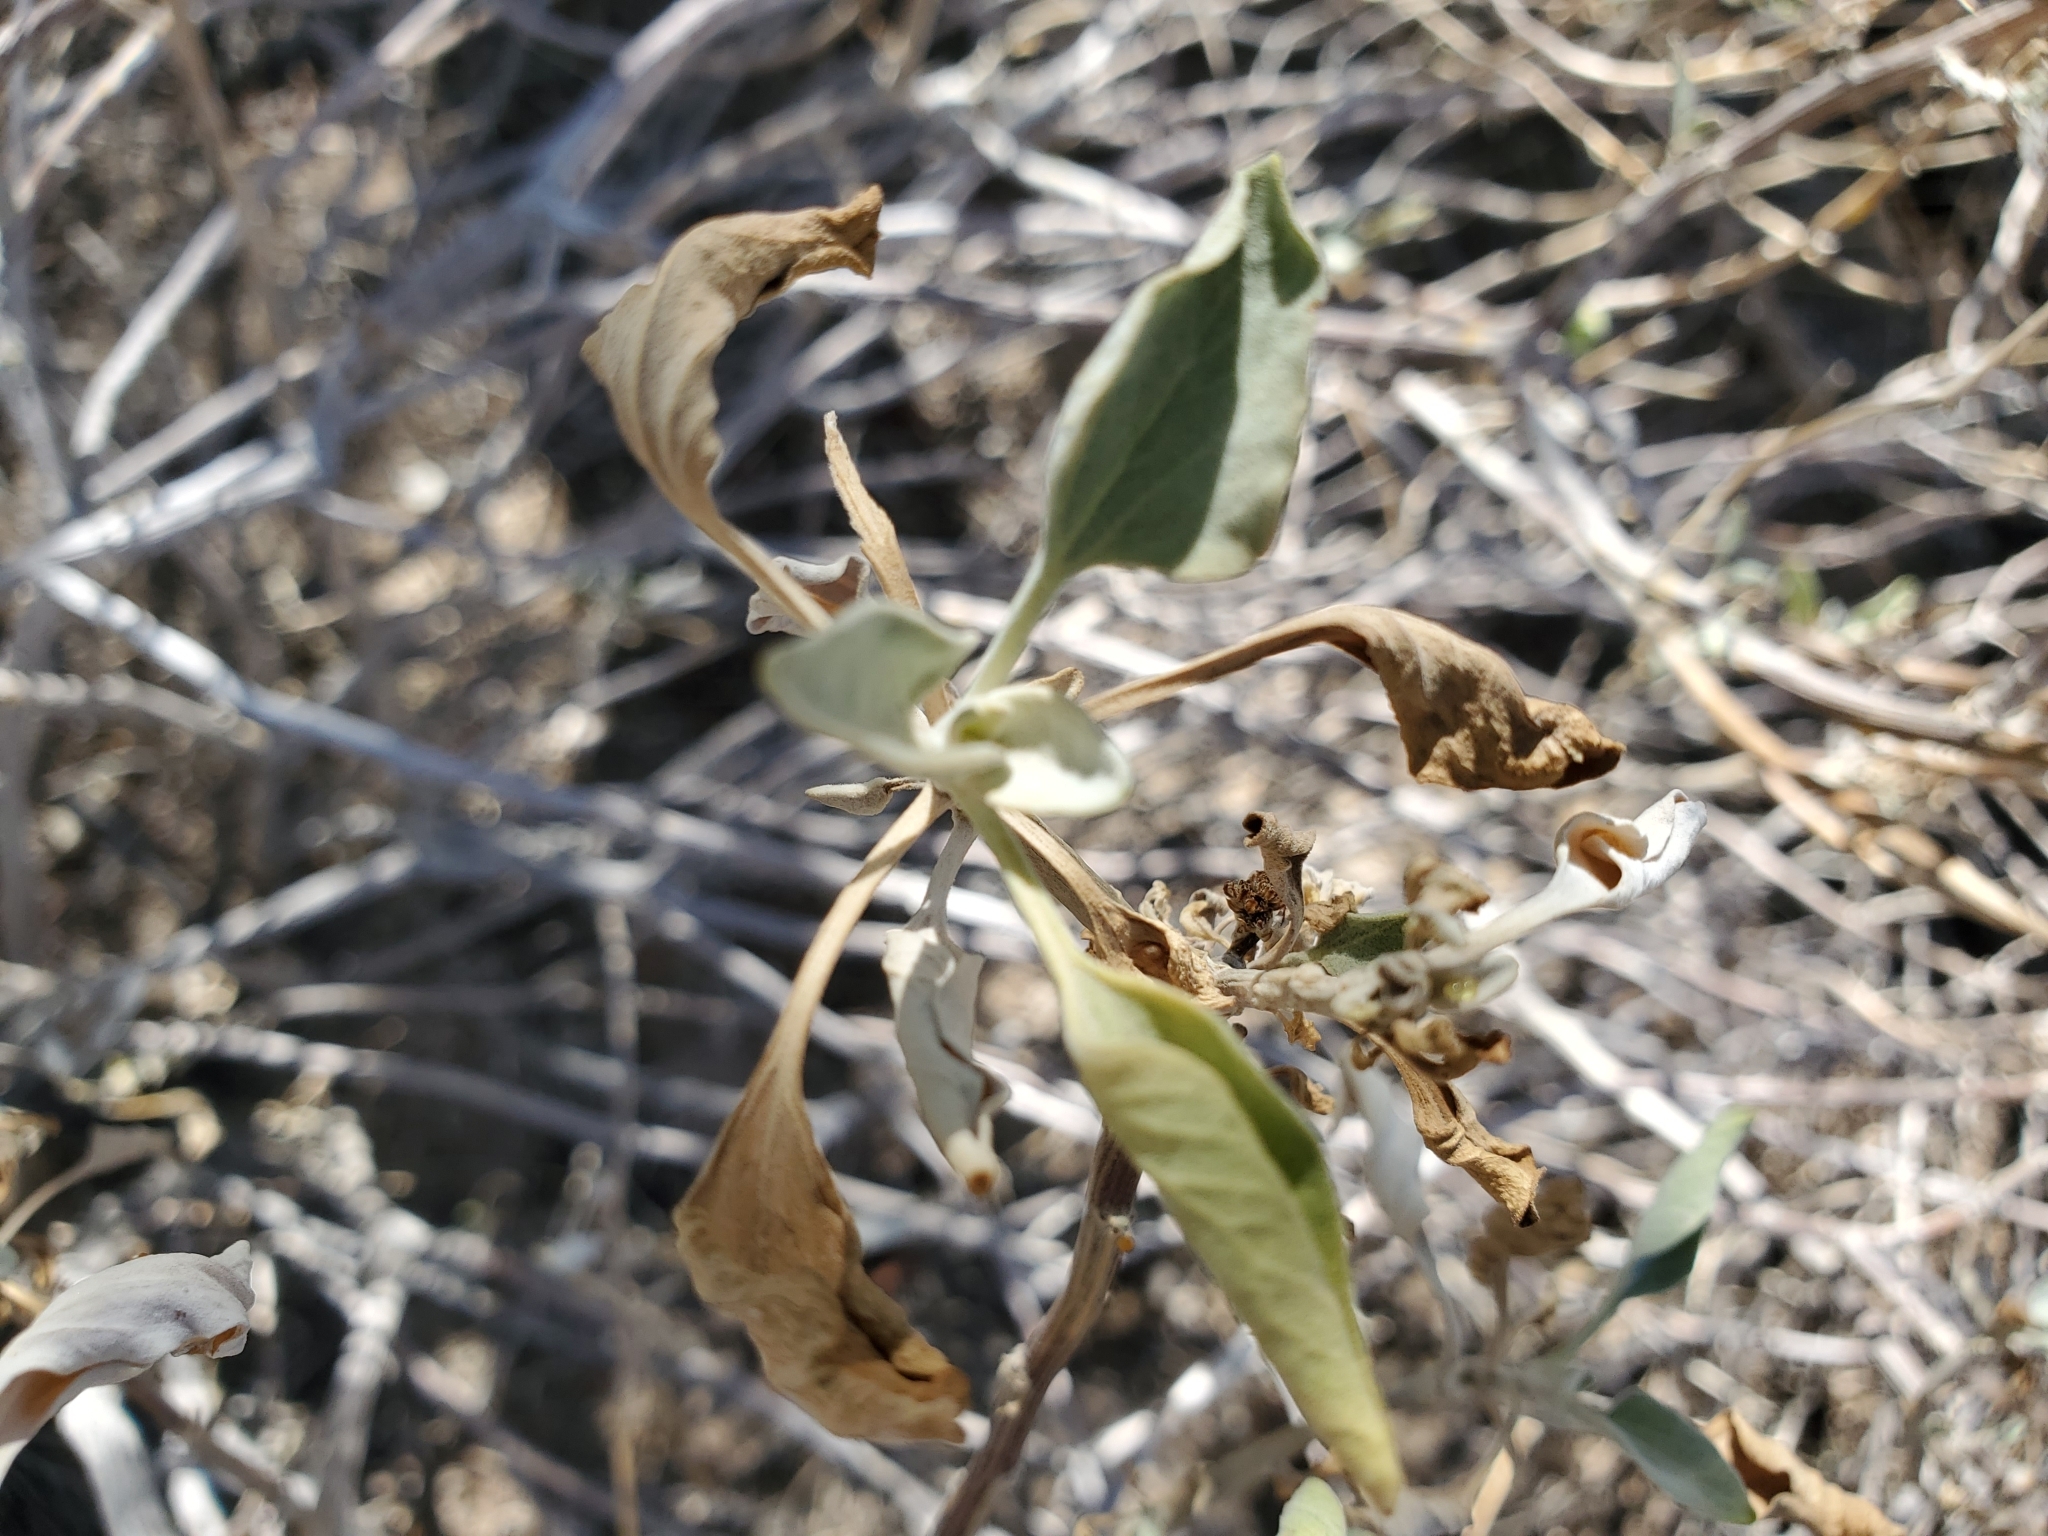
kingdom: Plantae
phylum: Tracheophyta
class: Magnoliopsida
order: Asterales
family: Asteraceae
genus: Encelia
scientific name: Encelia farinosa
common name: Brittlebush
